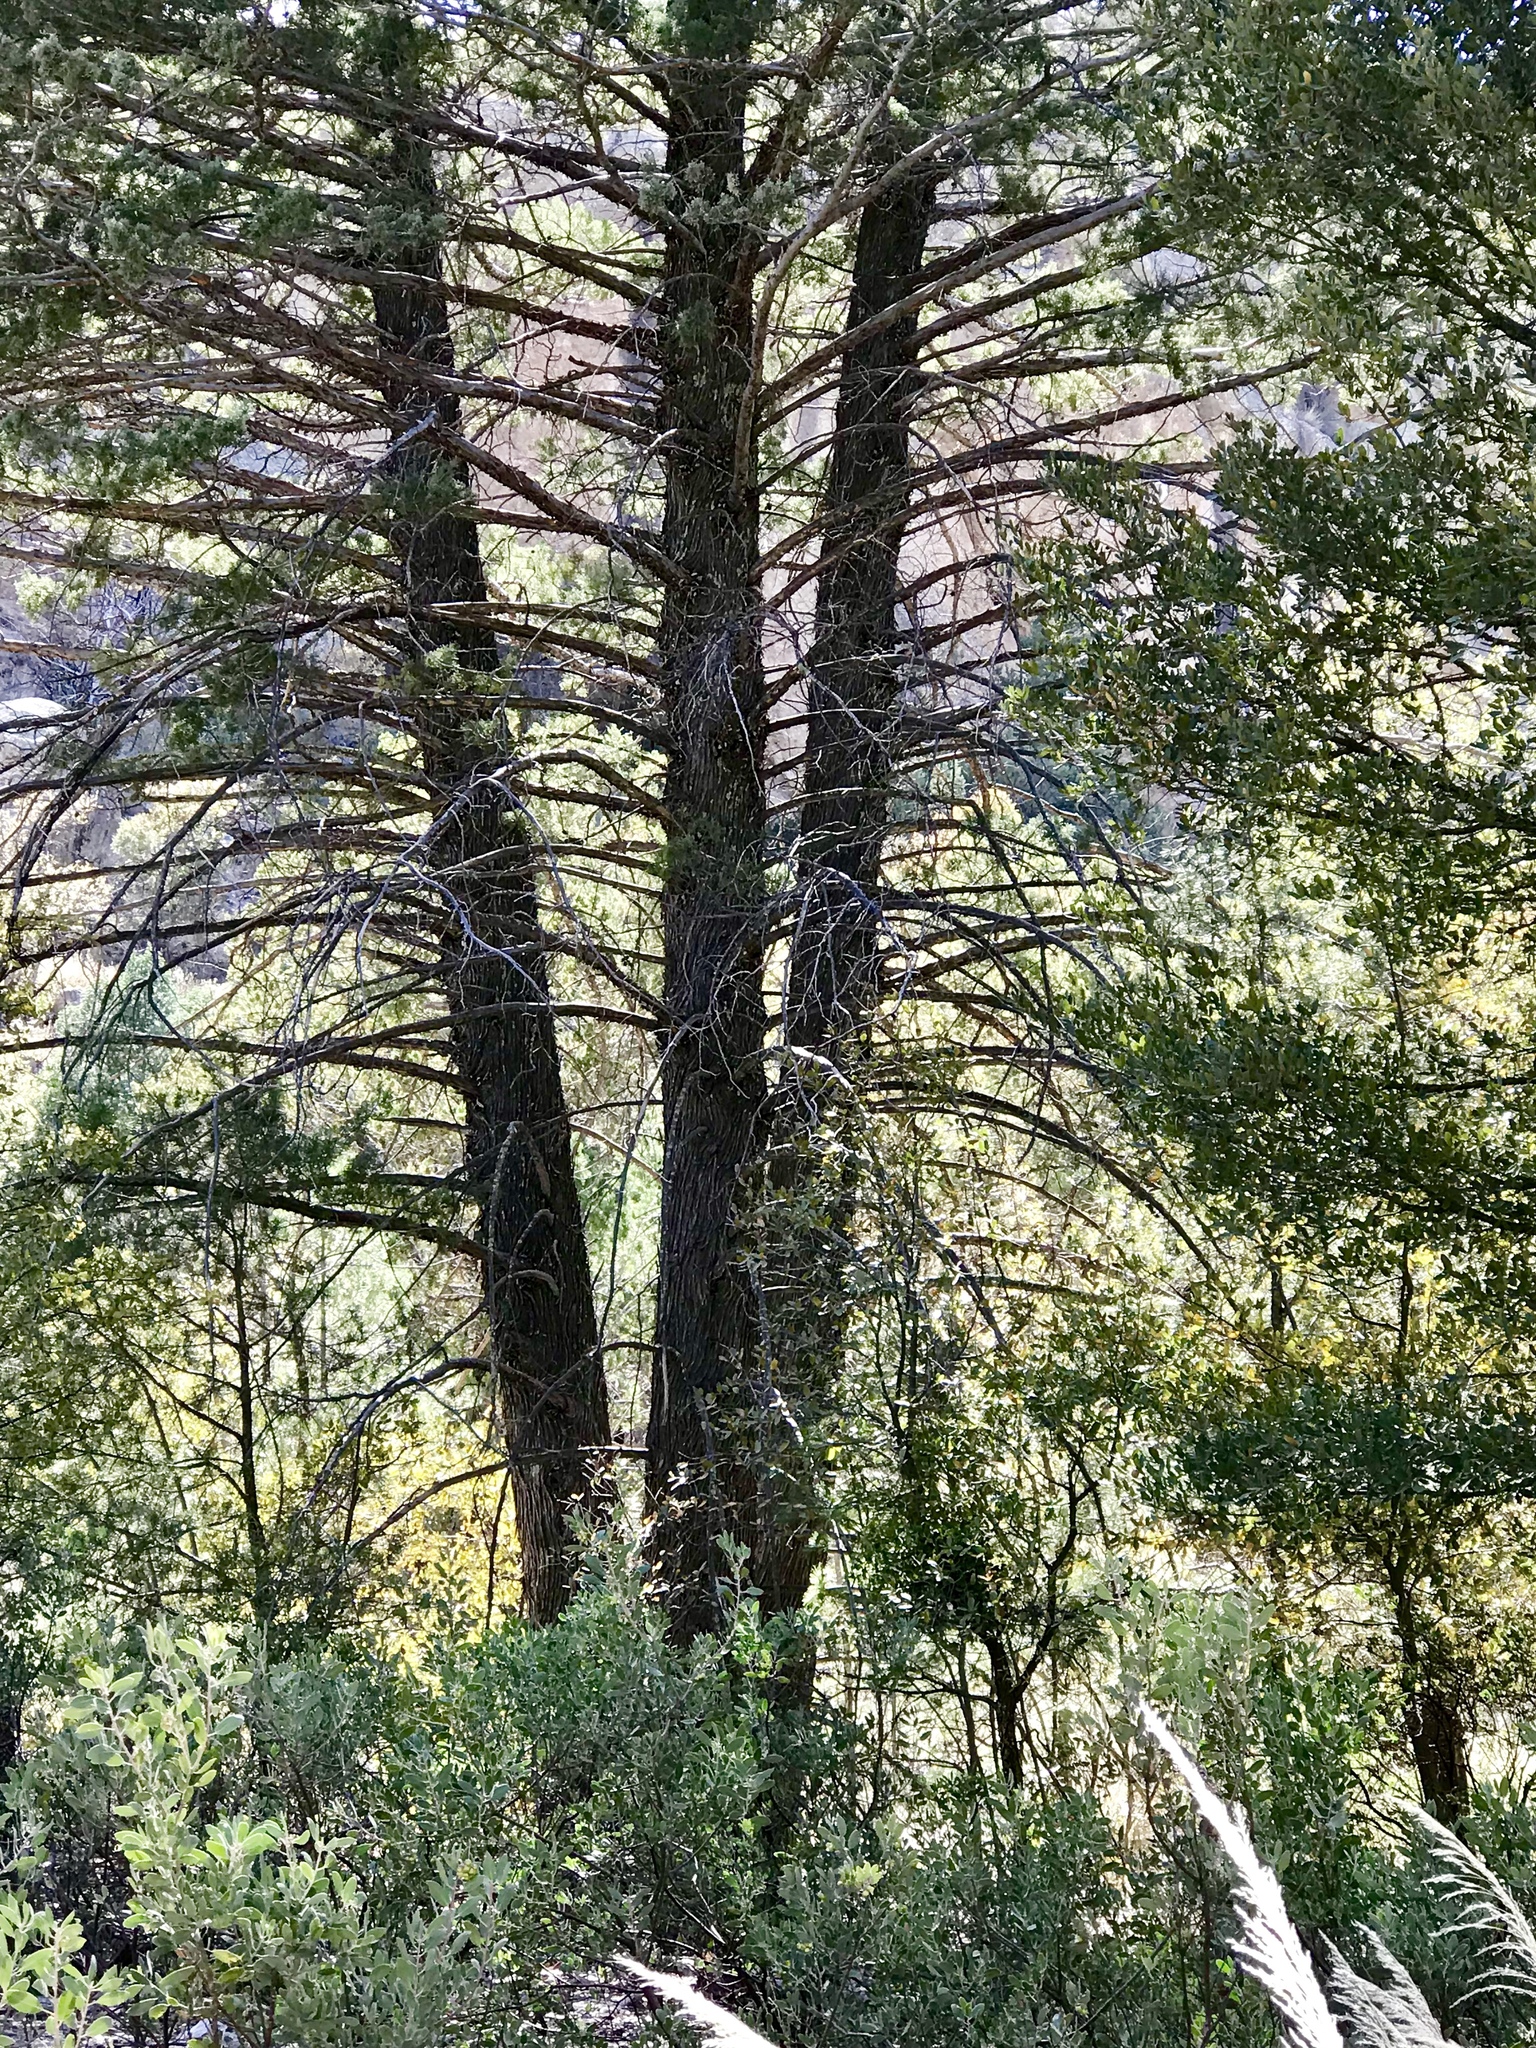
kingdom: Plantae
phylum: Tracheophyta
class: Pinopsida
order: Pinales
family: Cupressaceae
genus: Cupressus
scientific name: Cupressus arizonica
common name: Arizona cypress
